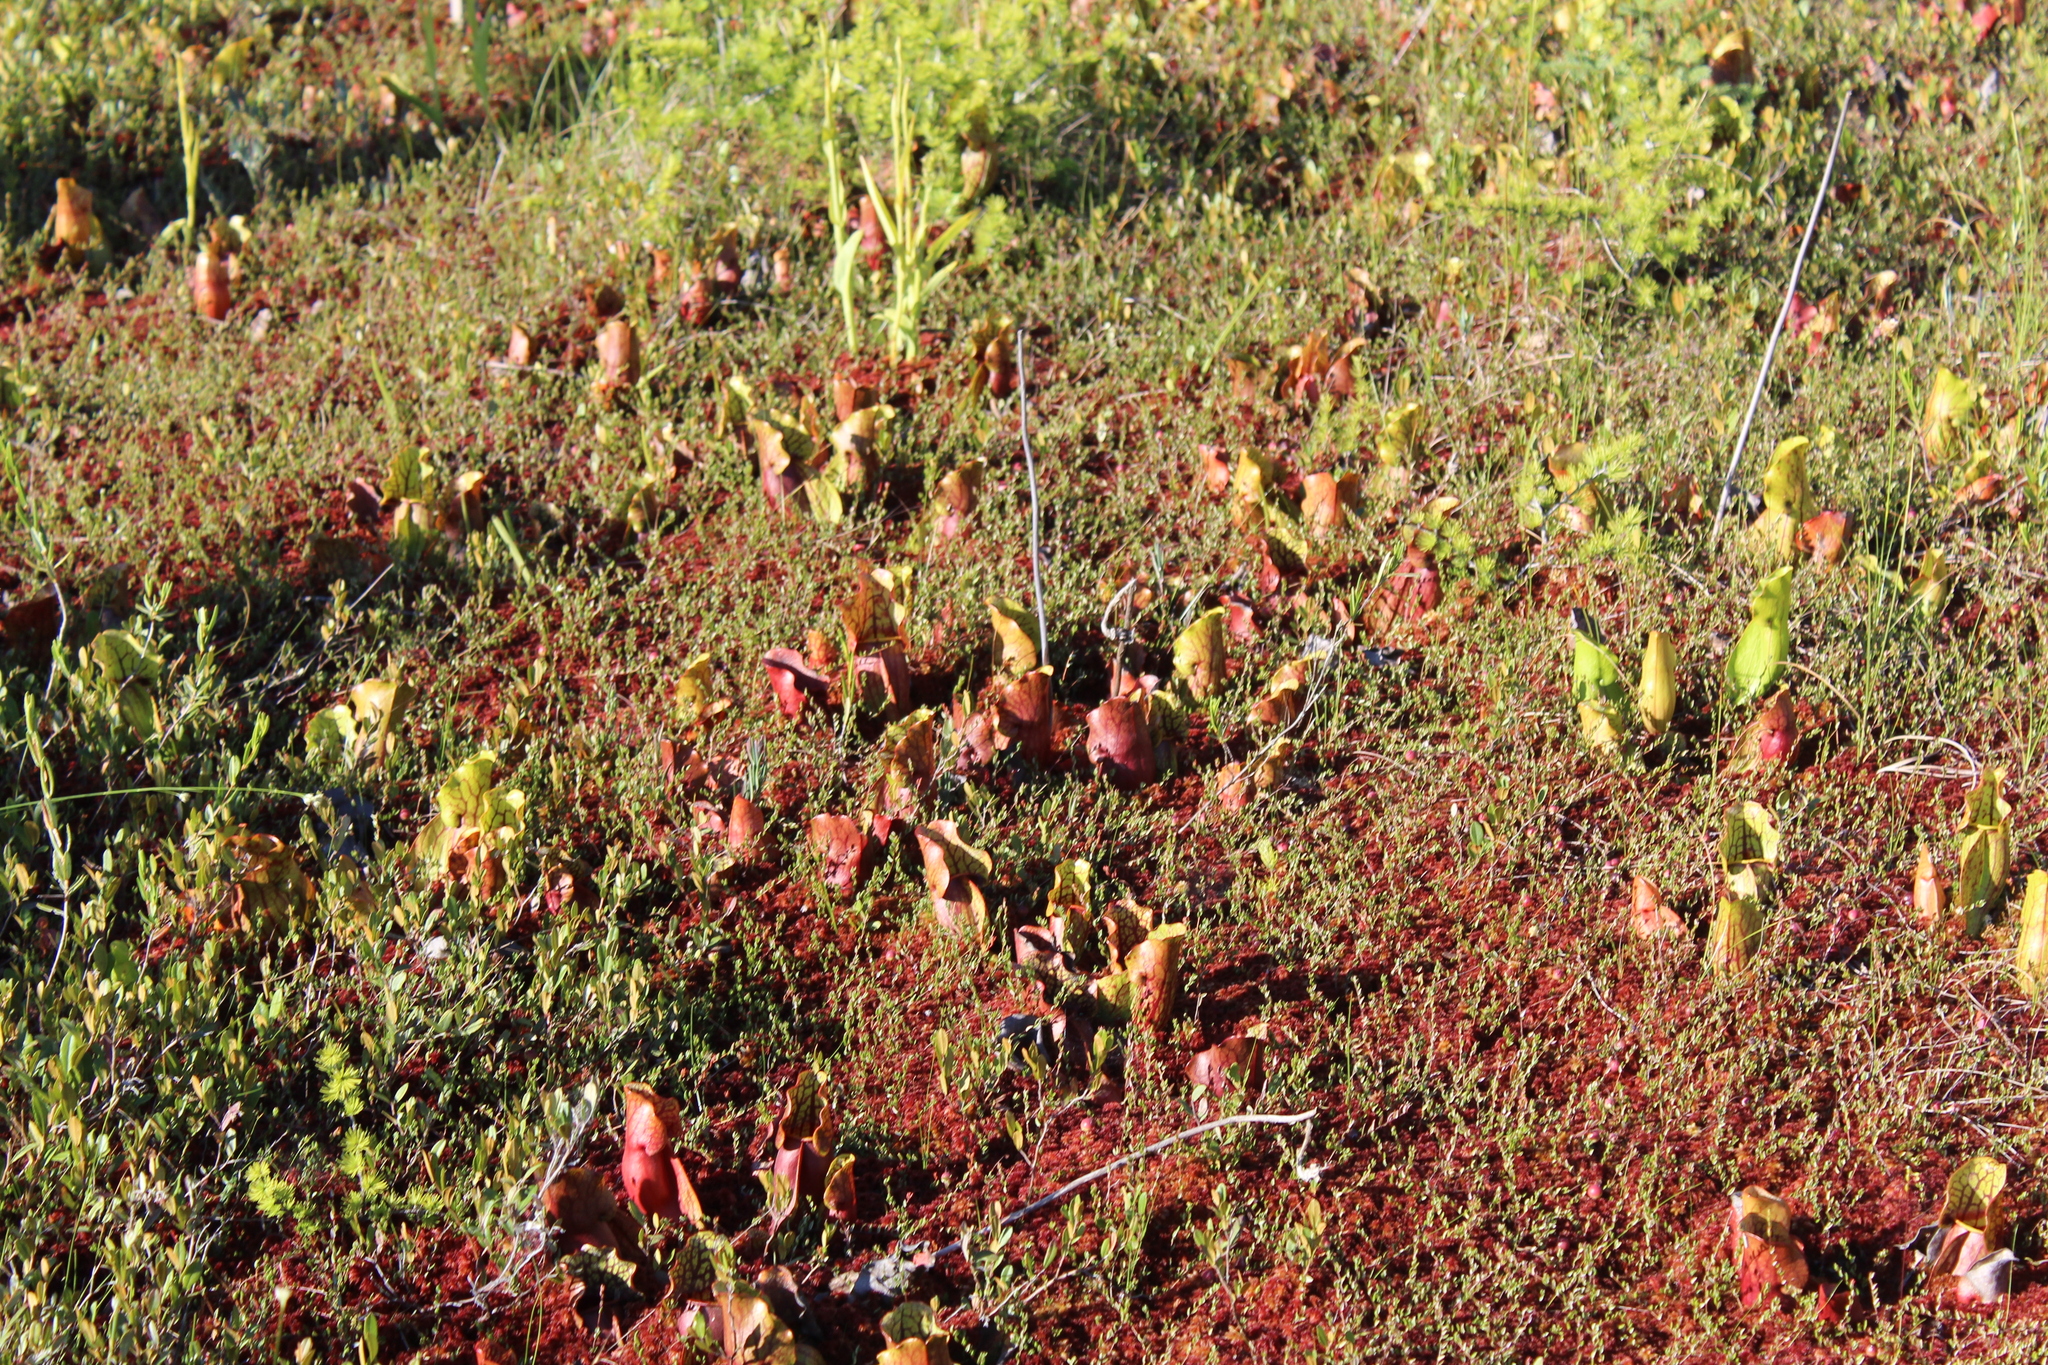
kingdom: Plantae
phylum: Tracheophyta
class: Magnoliopsida
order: Ericales
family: Sarraceniaceae
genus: Sarracenia
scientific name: Sarracenia purpurea
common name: Pitcherplant
